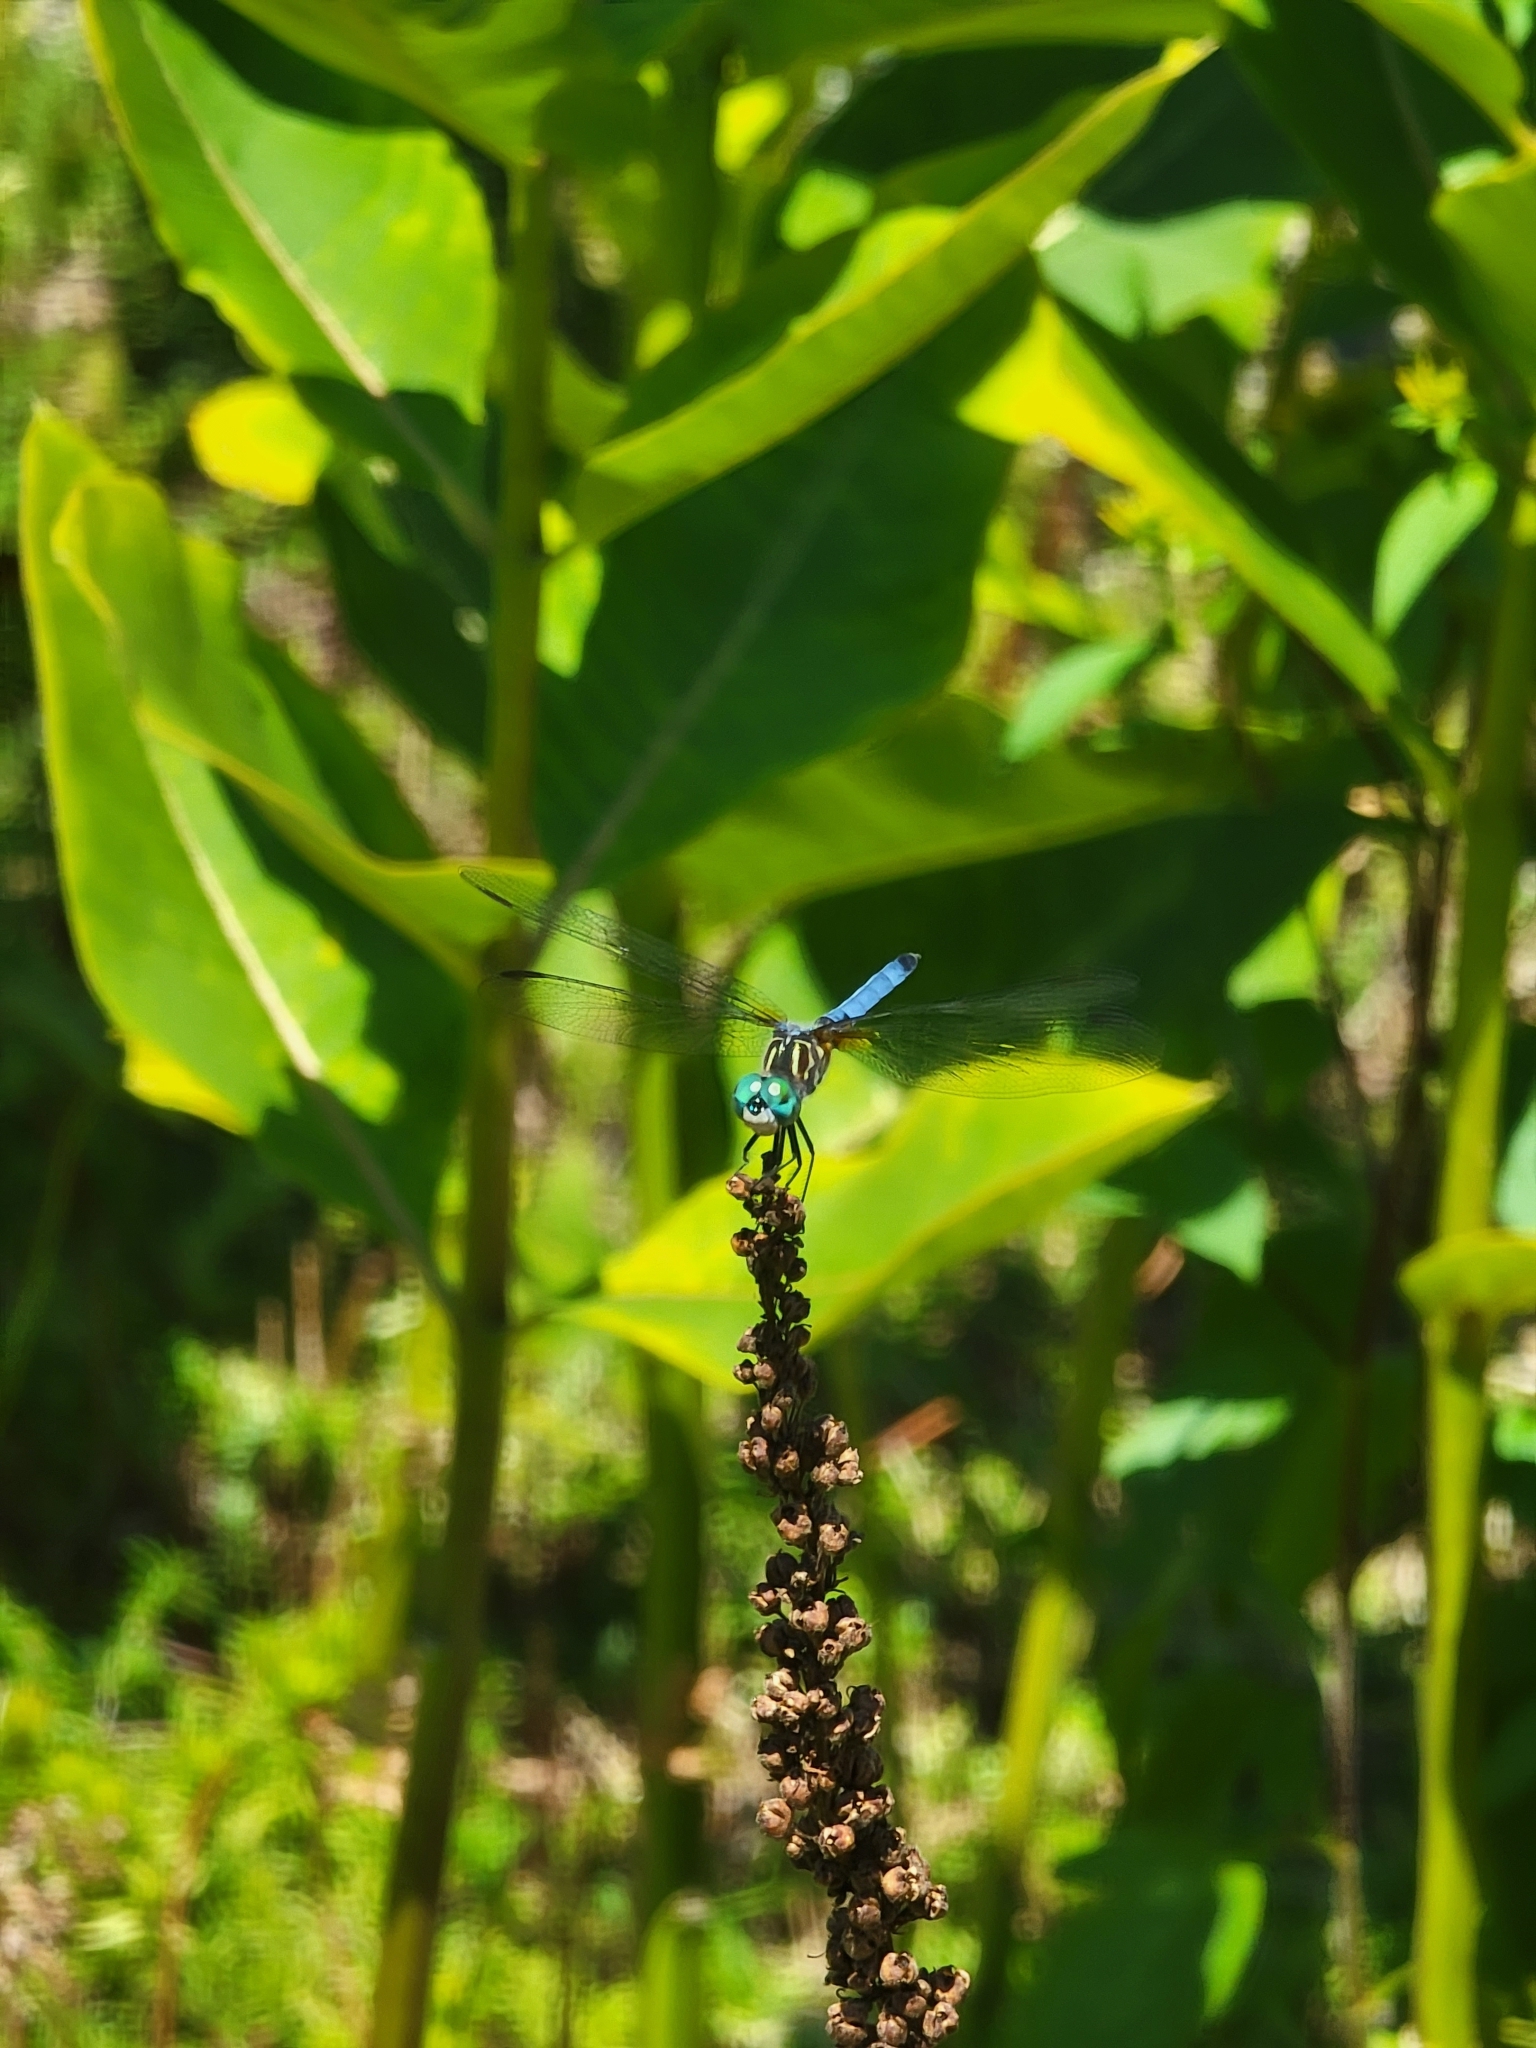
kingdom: Animalia
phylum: Arthropoda
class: Insecta
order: Odonata
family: Libellulidae
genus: Pachydiplax
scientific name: Pachydiplax longipennis
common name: Blue dasher
